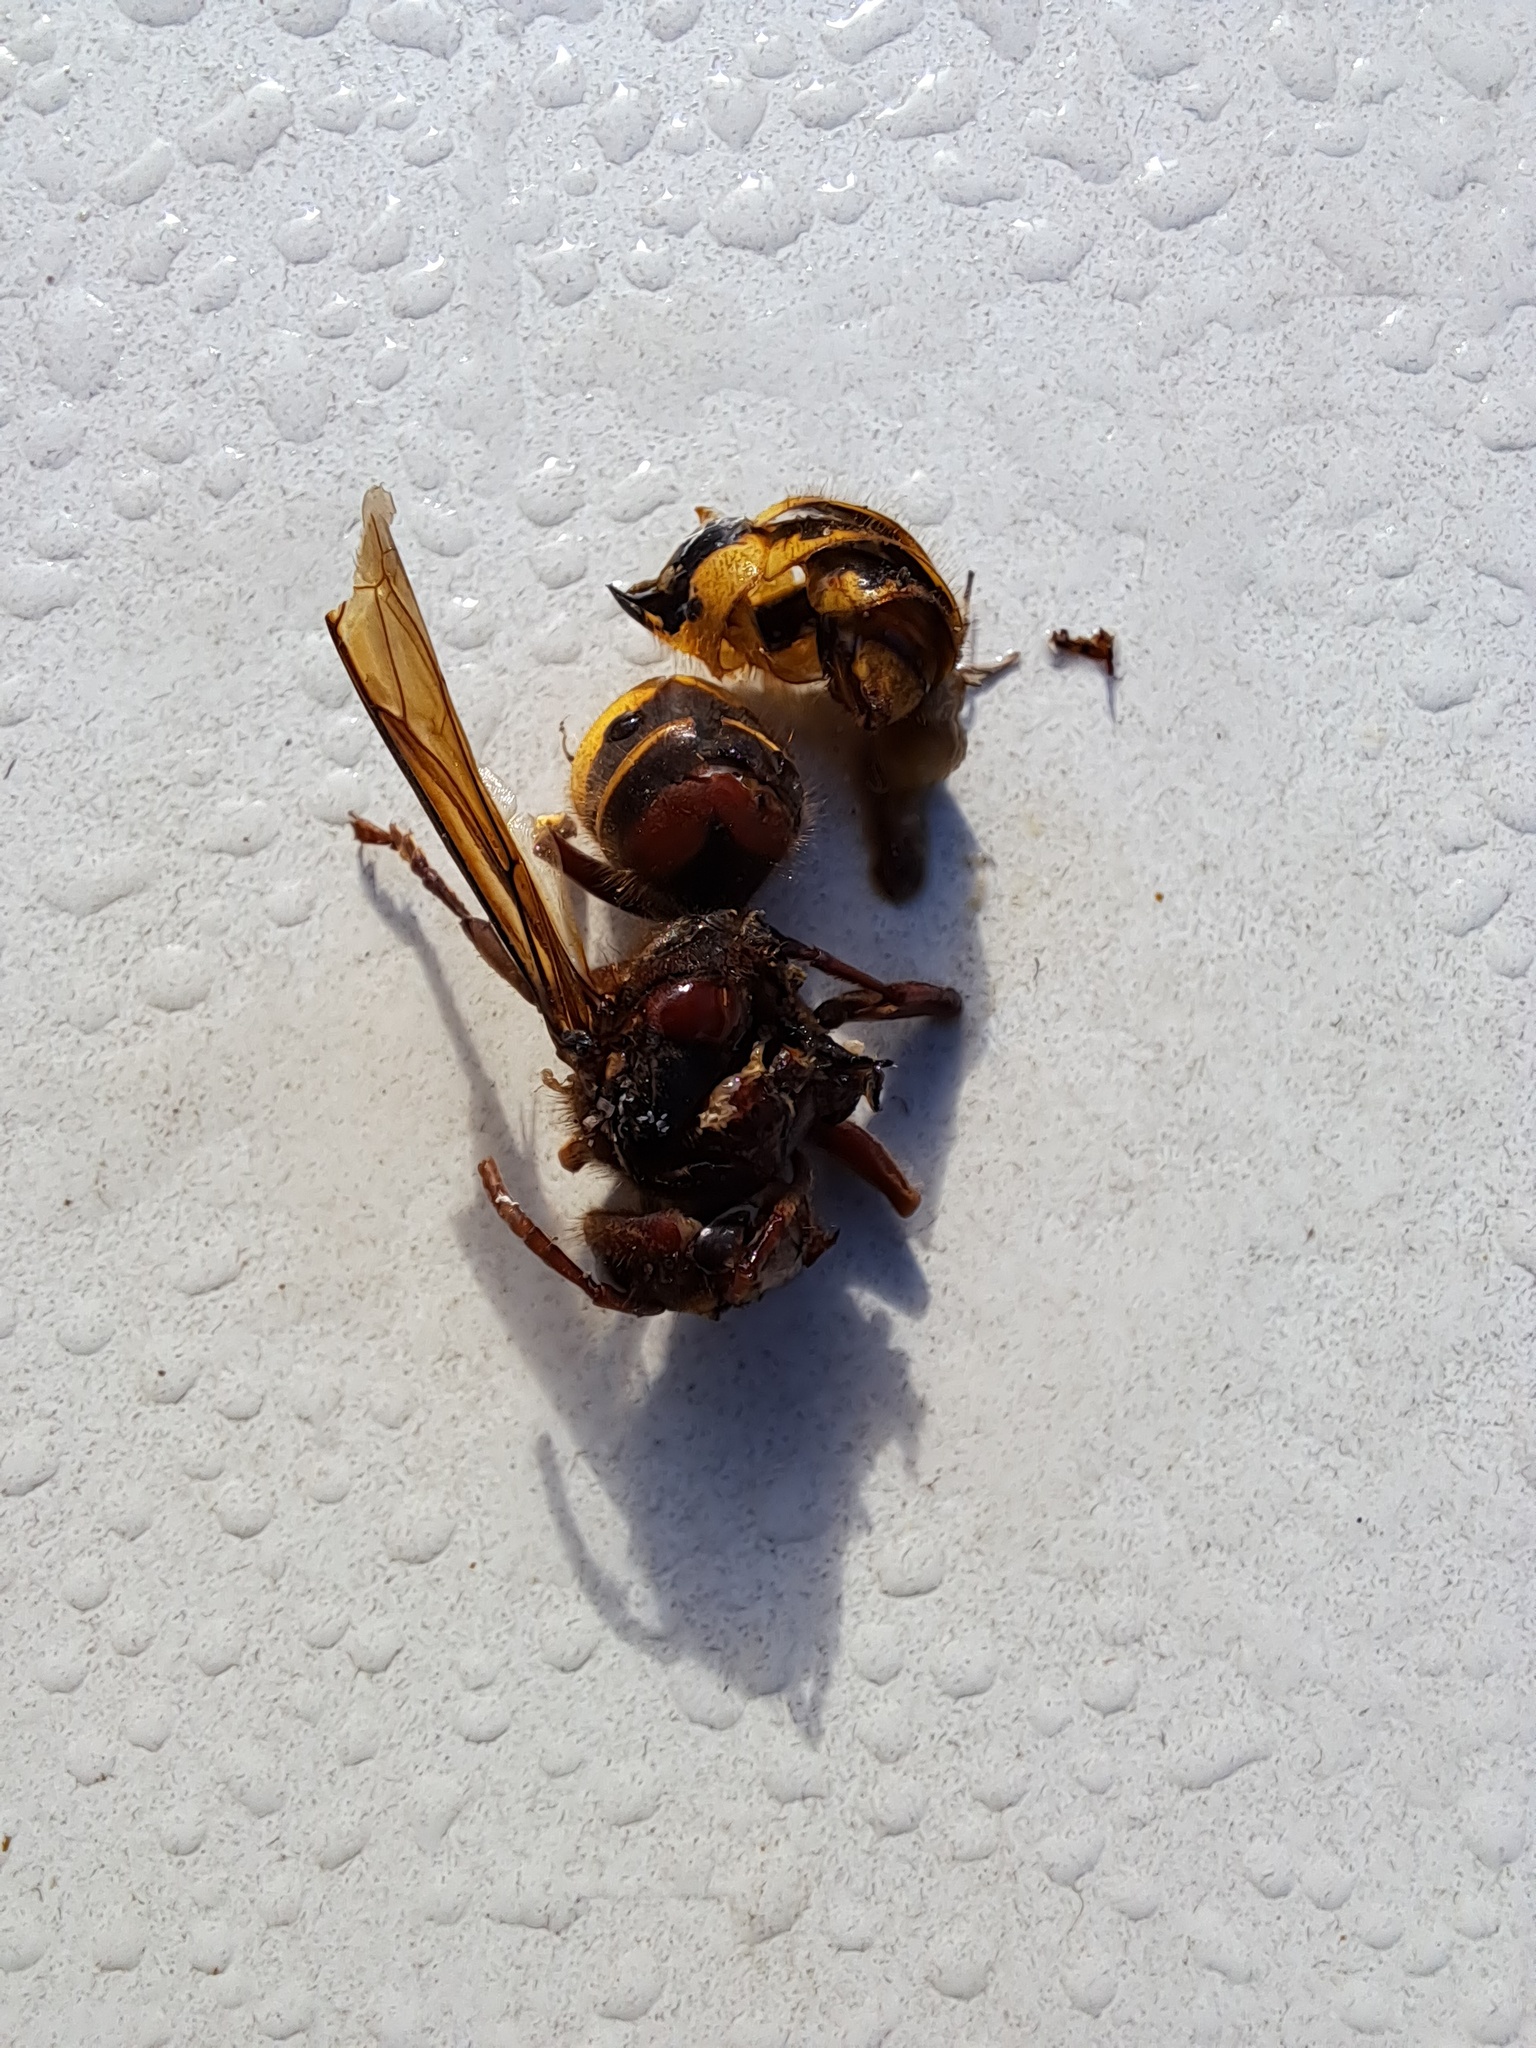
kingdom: Animalia
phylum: Arthropoda
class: Insecta
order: Hymenoptera
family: Vespidae
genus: Vespa
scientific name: Vespa crabro
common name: Hornet
